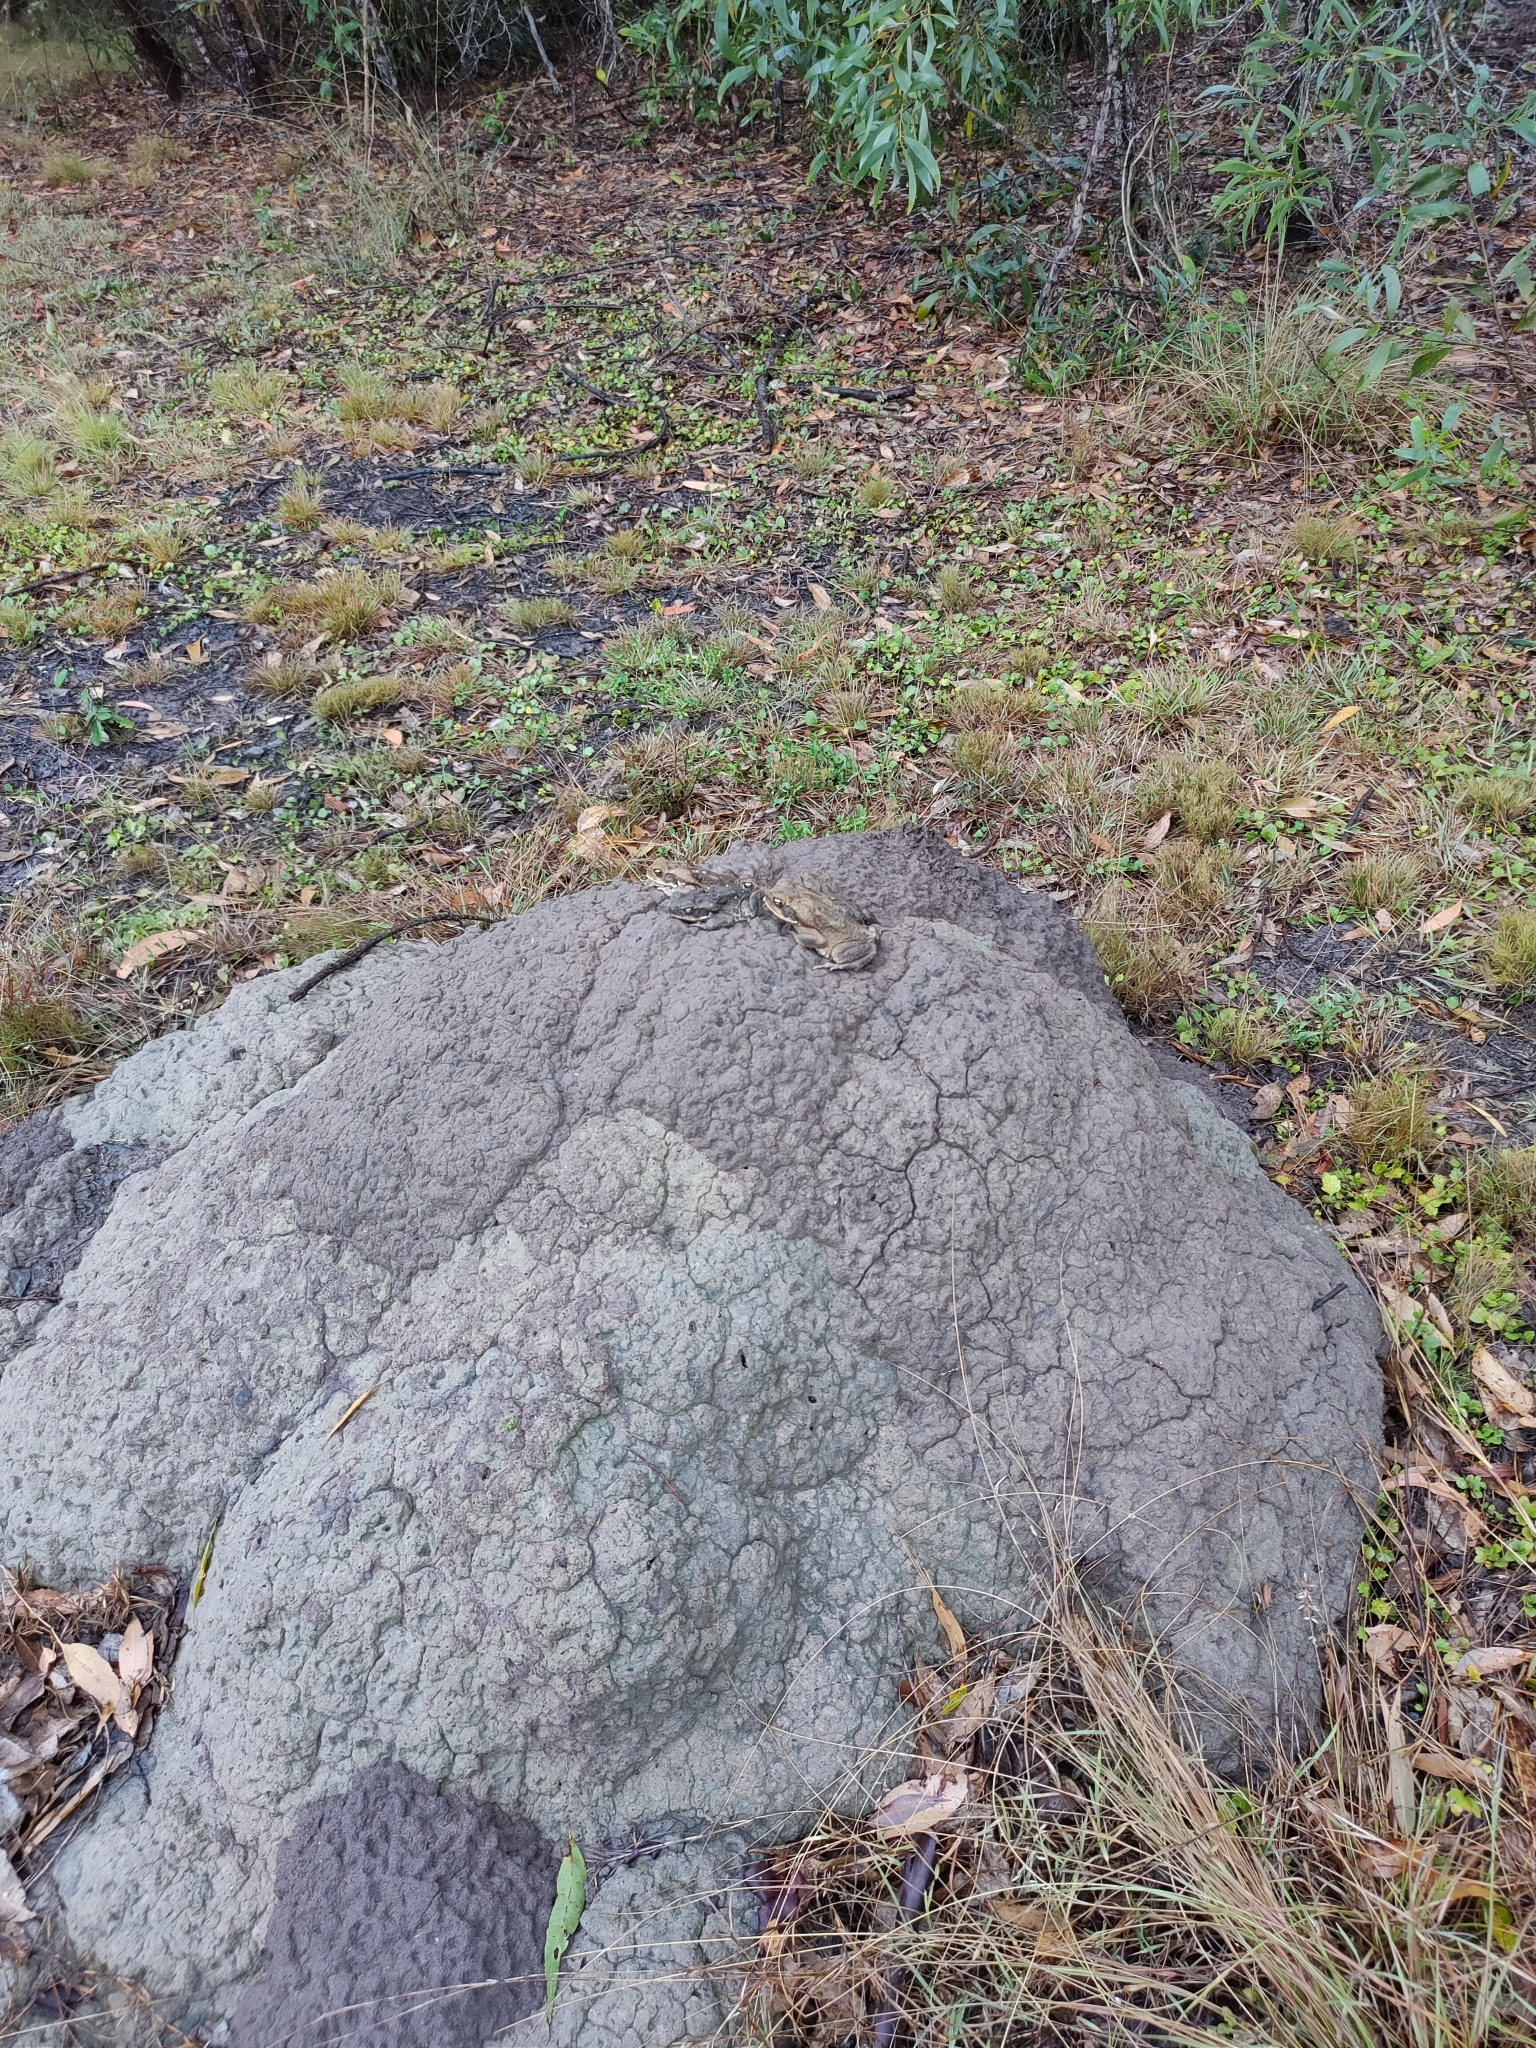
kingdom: Animalia
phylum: Chordata
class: Amphibia
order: Anura
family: Bufonidae
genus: Rhinella
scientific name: Rhinella marina
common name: Cane toad
